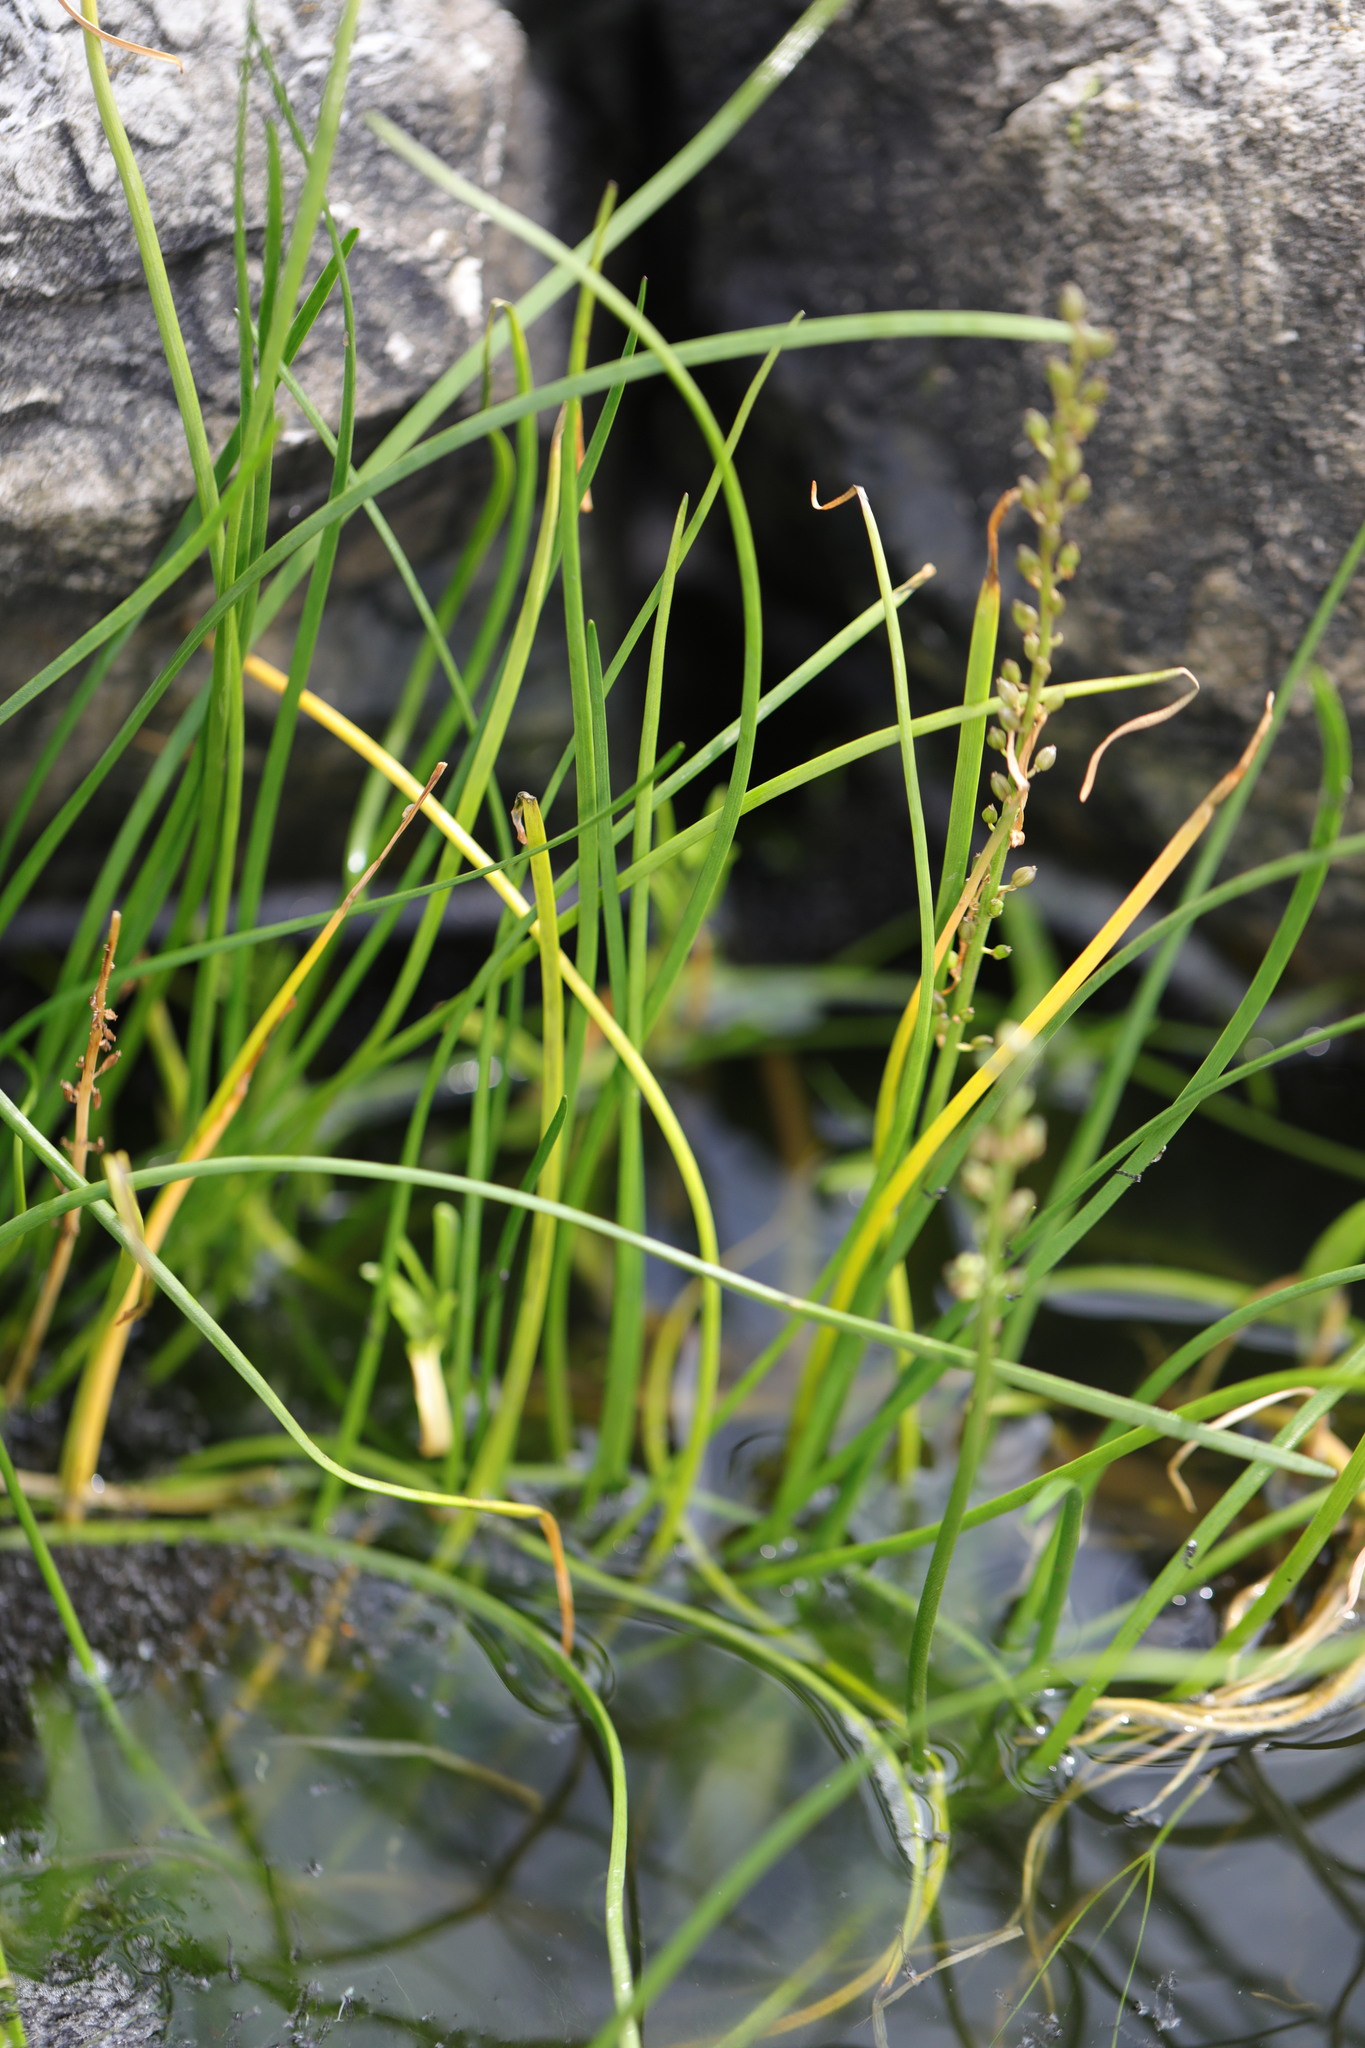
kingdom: Plantae
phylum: Tracheophyta
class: Liliopsida
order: Alismatales
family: Juncaginaceae
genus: Triglochin
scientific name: Triglochin maritima
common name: Sea arrowgrass
